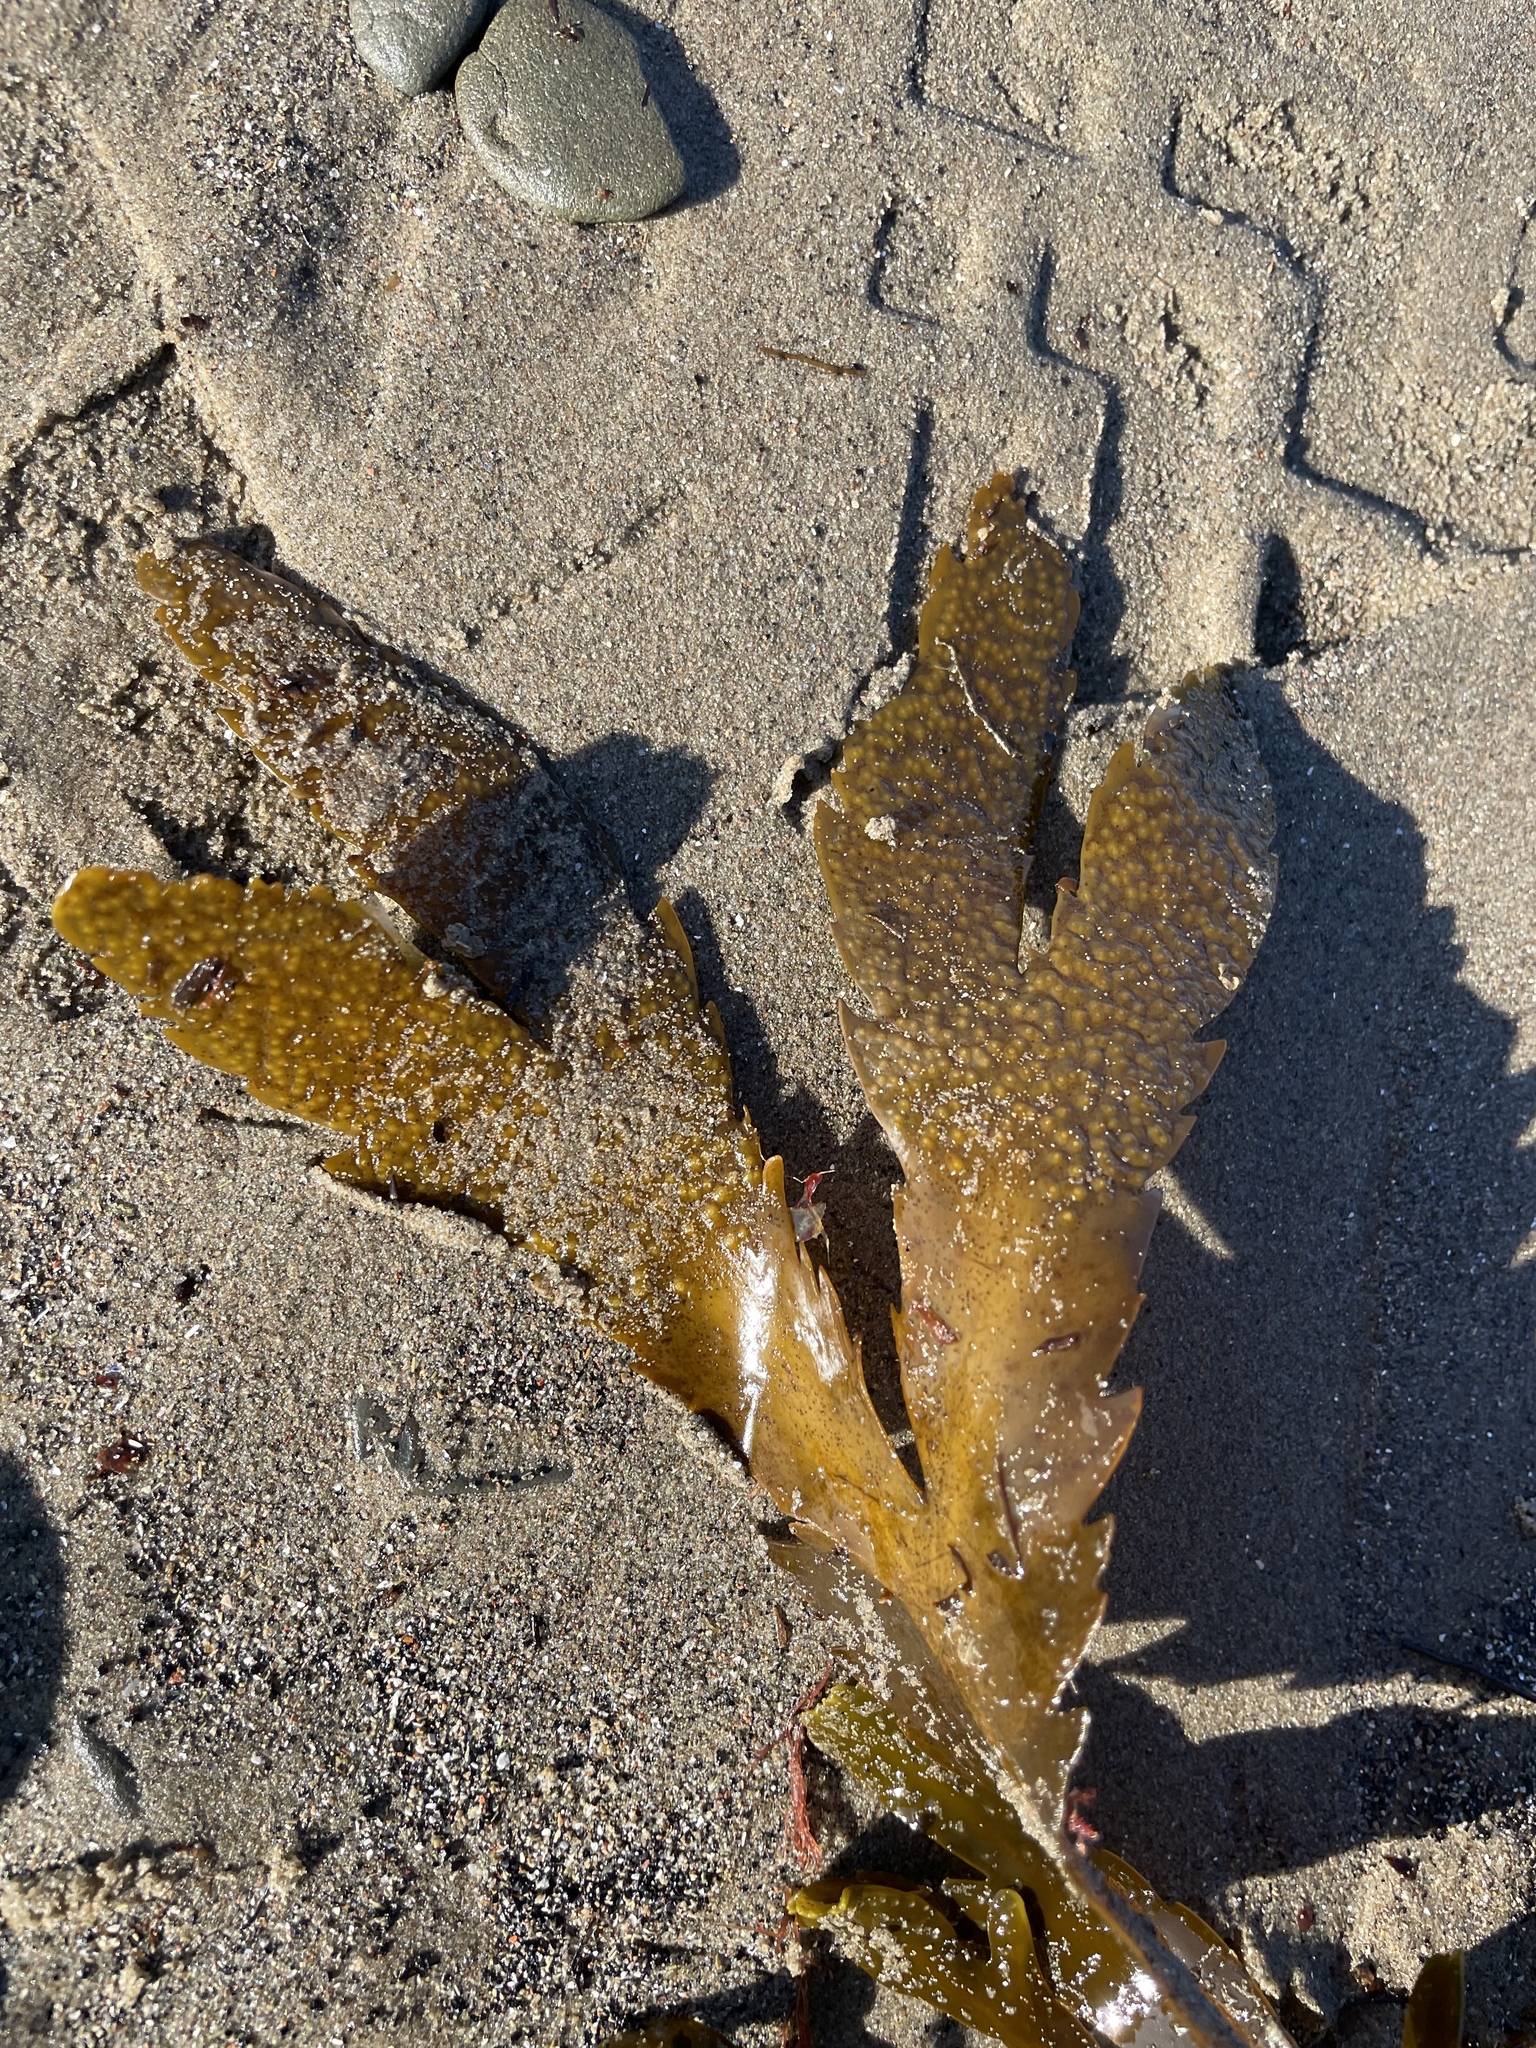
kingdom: Chromista
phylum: Ochrophyta
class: Phaeophyceae
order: Fucales
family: Fucaceae
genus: Fucus
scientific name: Fucus serratus
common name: Toothed wrack
